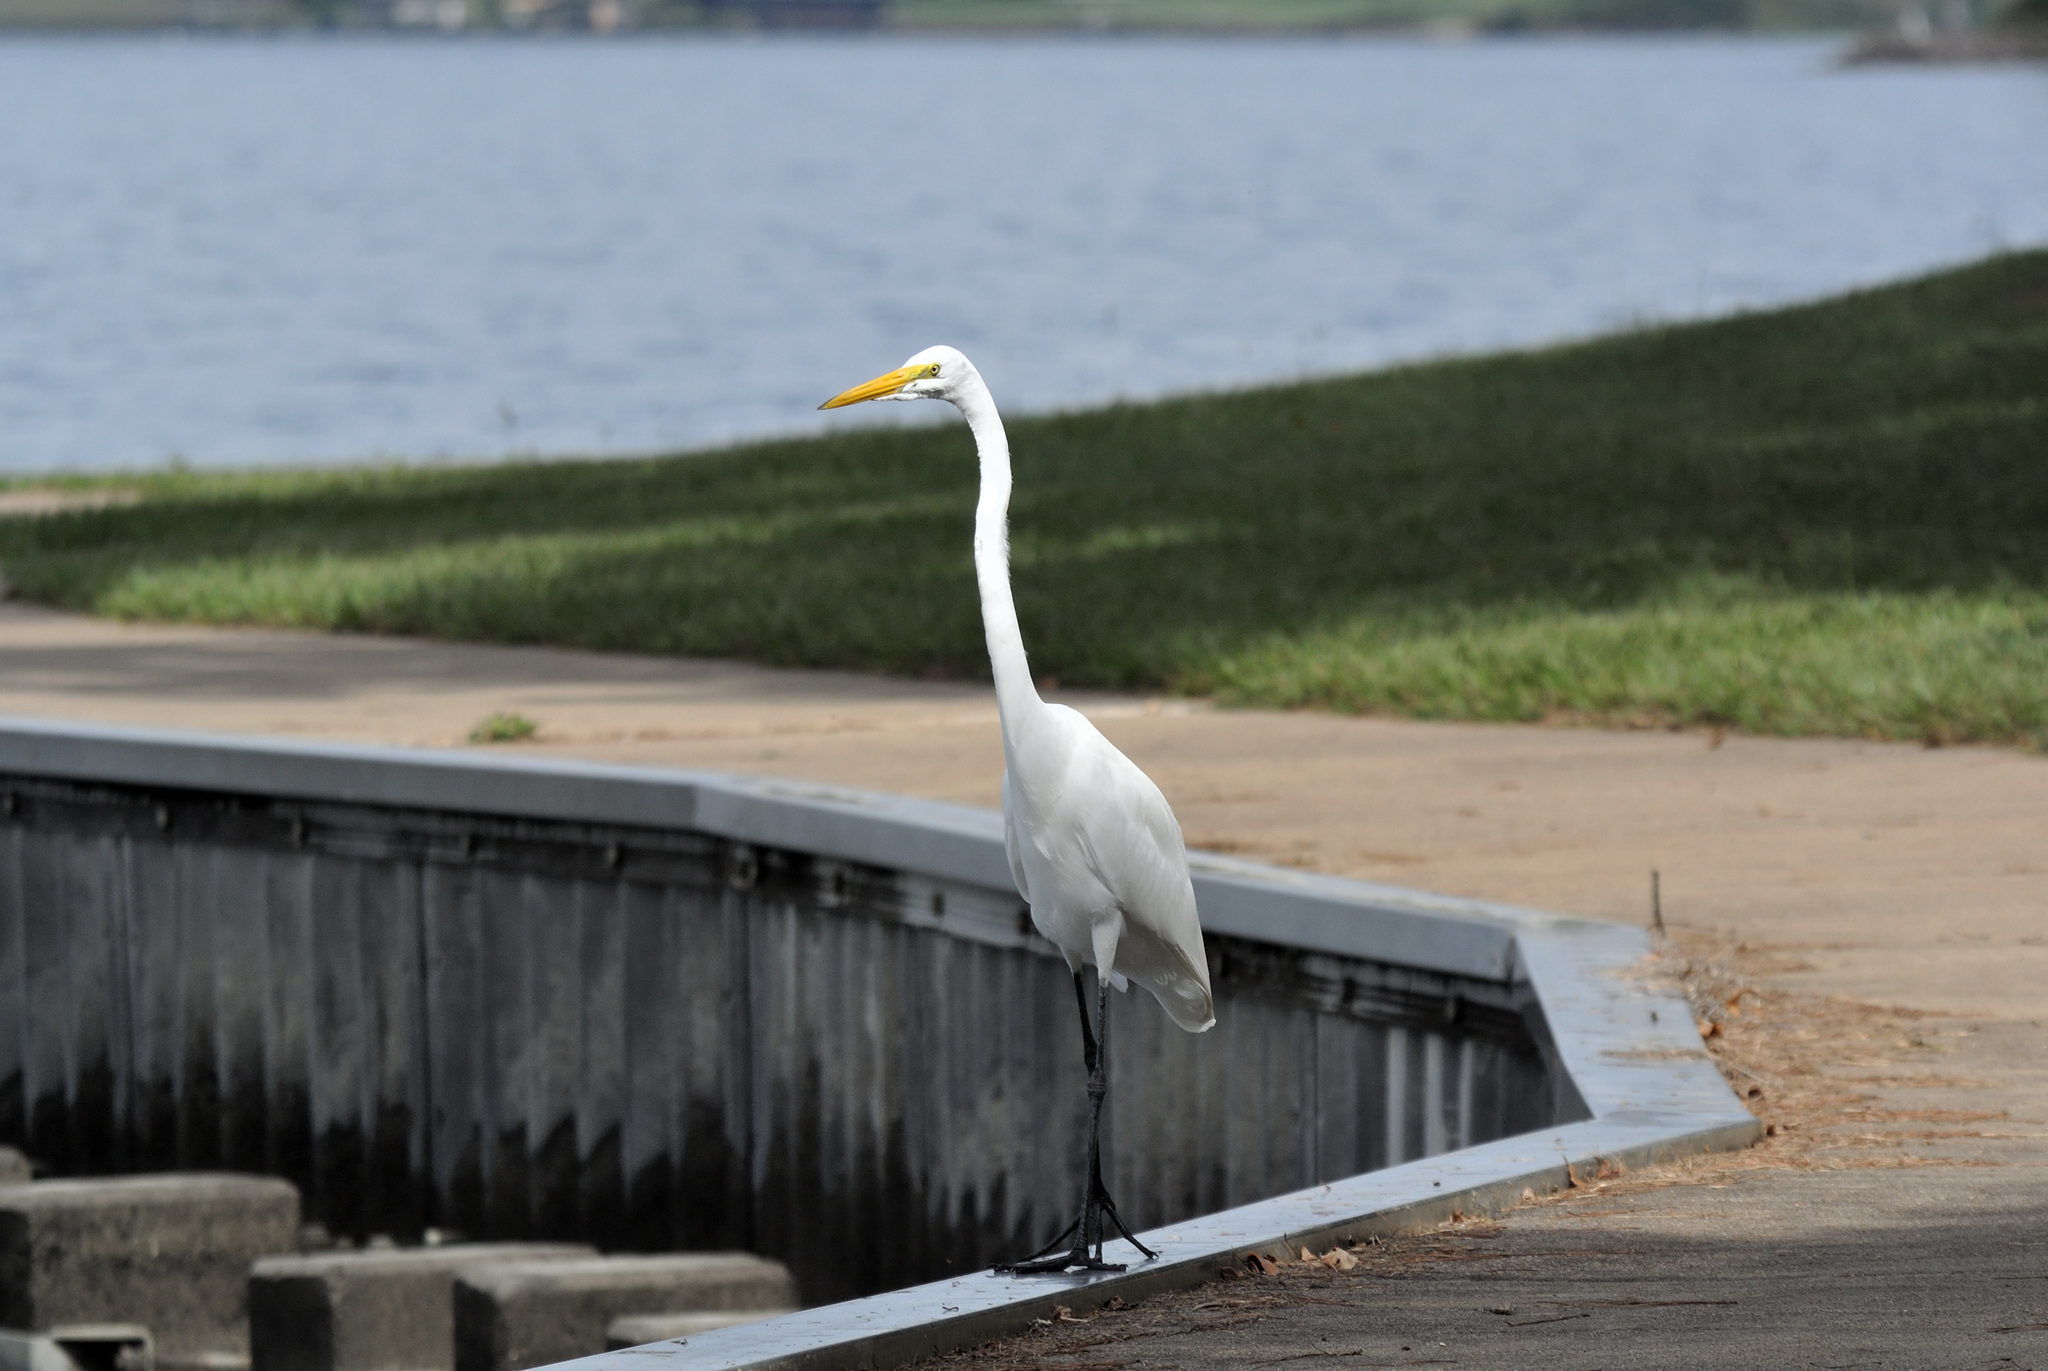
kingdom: Animalia
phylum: Chordata
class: Aves
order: Pelecaniformes
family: Ardeidae
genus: Ardea
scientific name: Ardea alba
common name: Great egret
